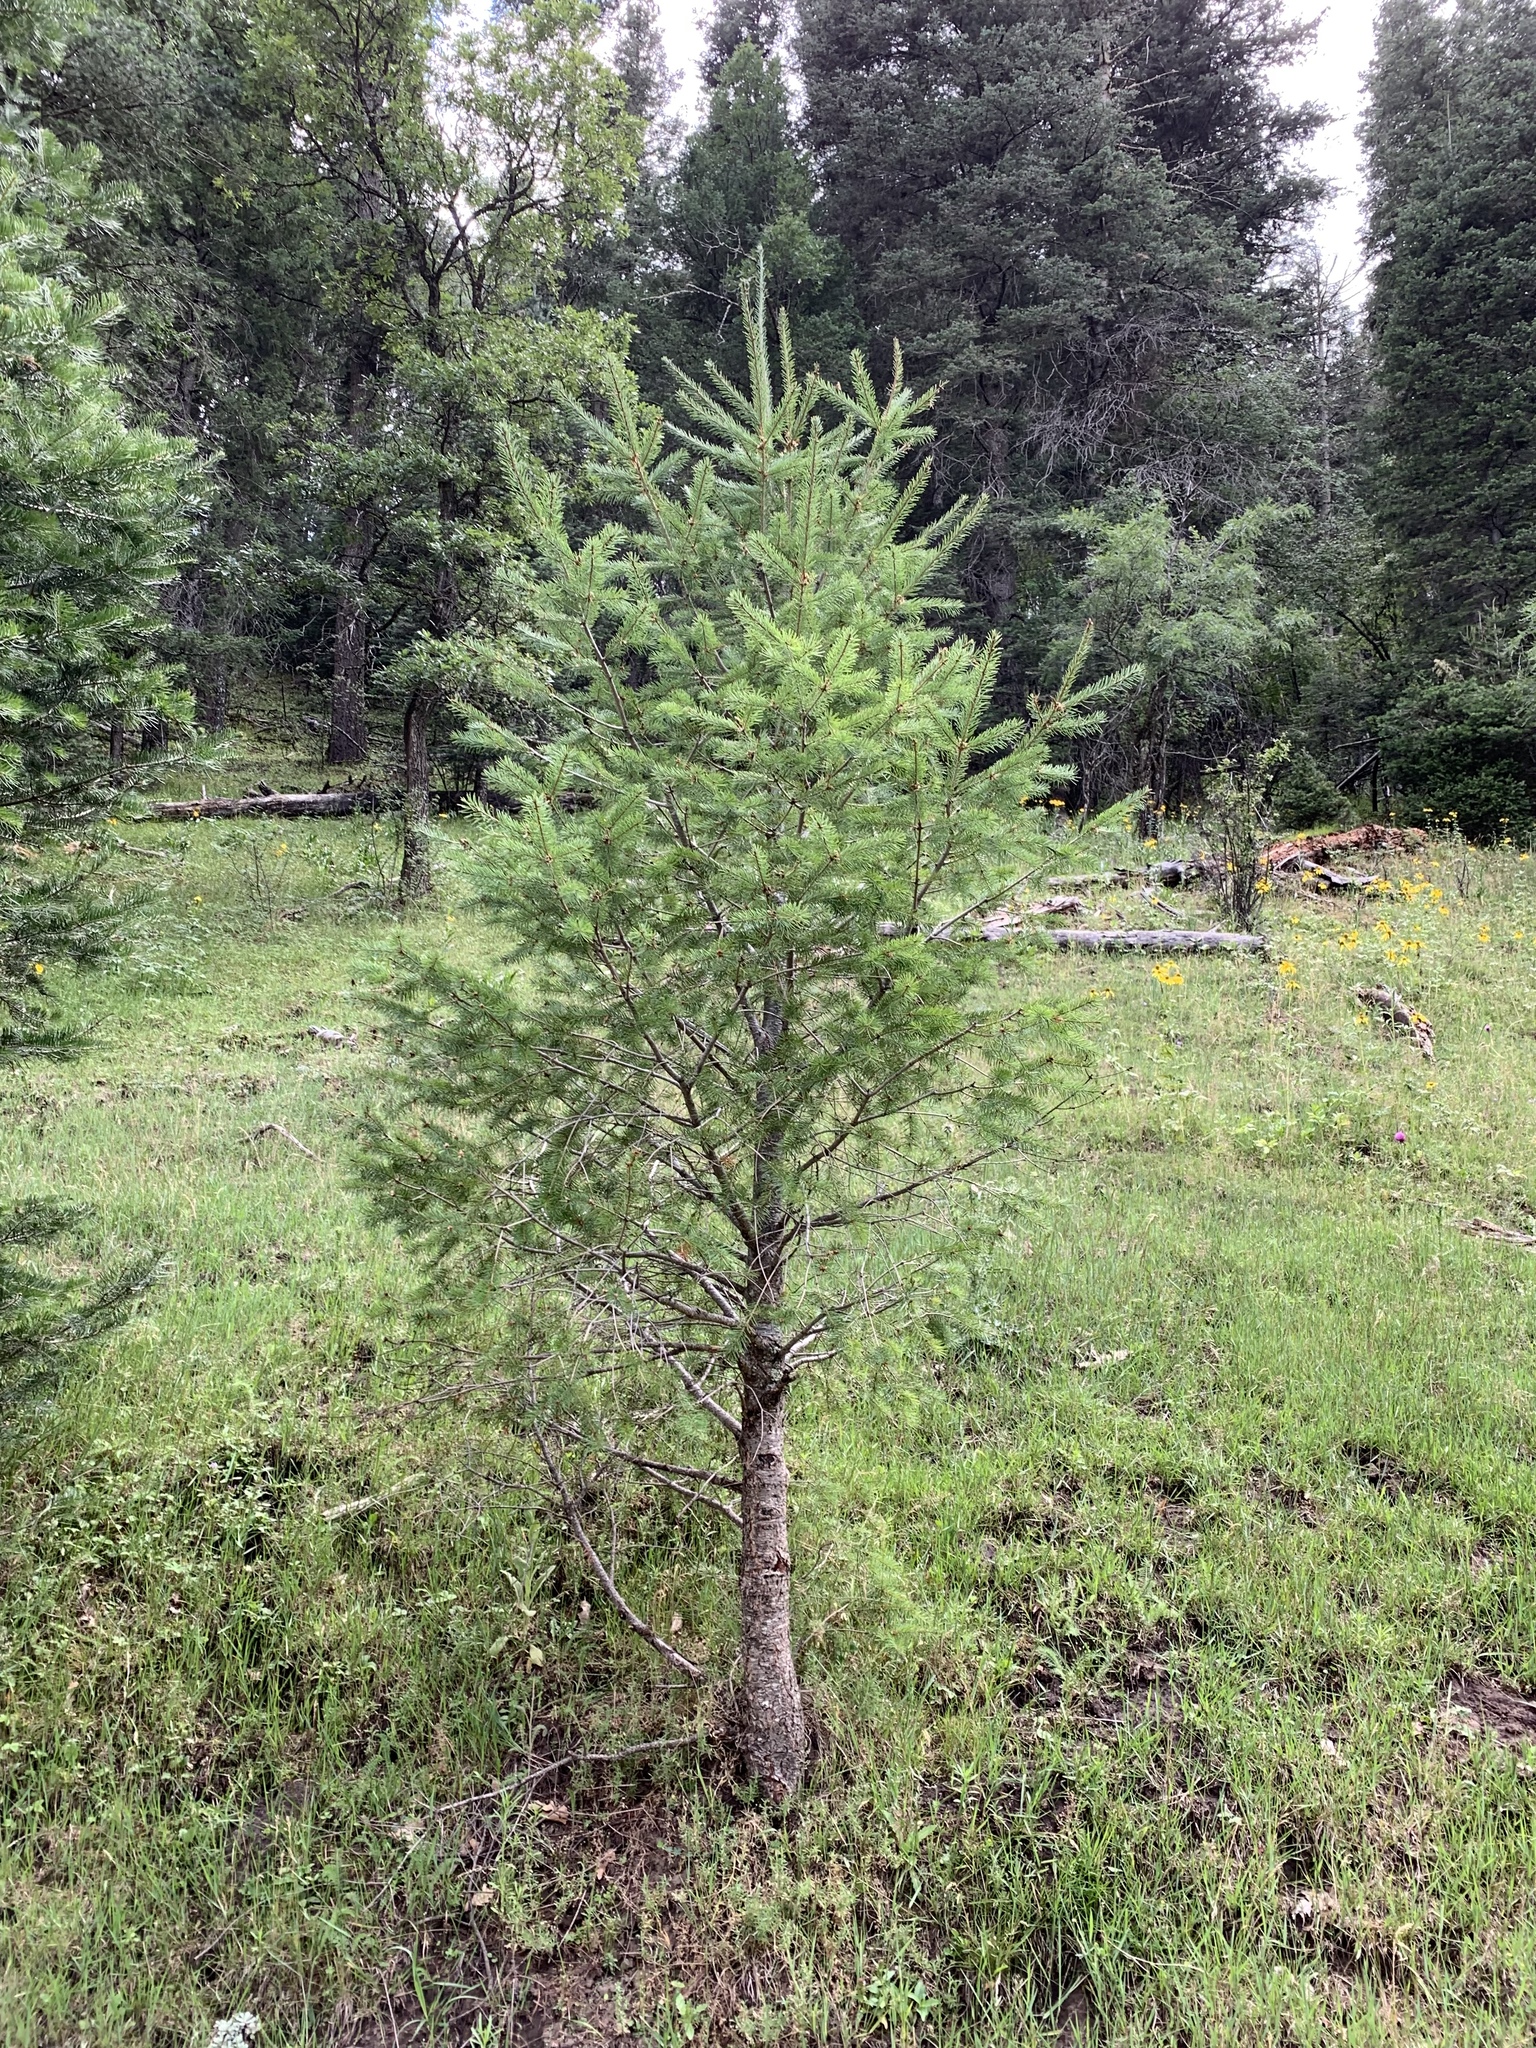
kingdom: Plantae
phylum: Tracheophyta
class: Pinopsida
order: Pinales
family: Pinaceae
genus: Pseudotsuga
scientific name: Pseudotsuga menziesii
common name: Douglas fir
